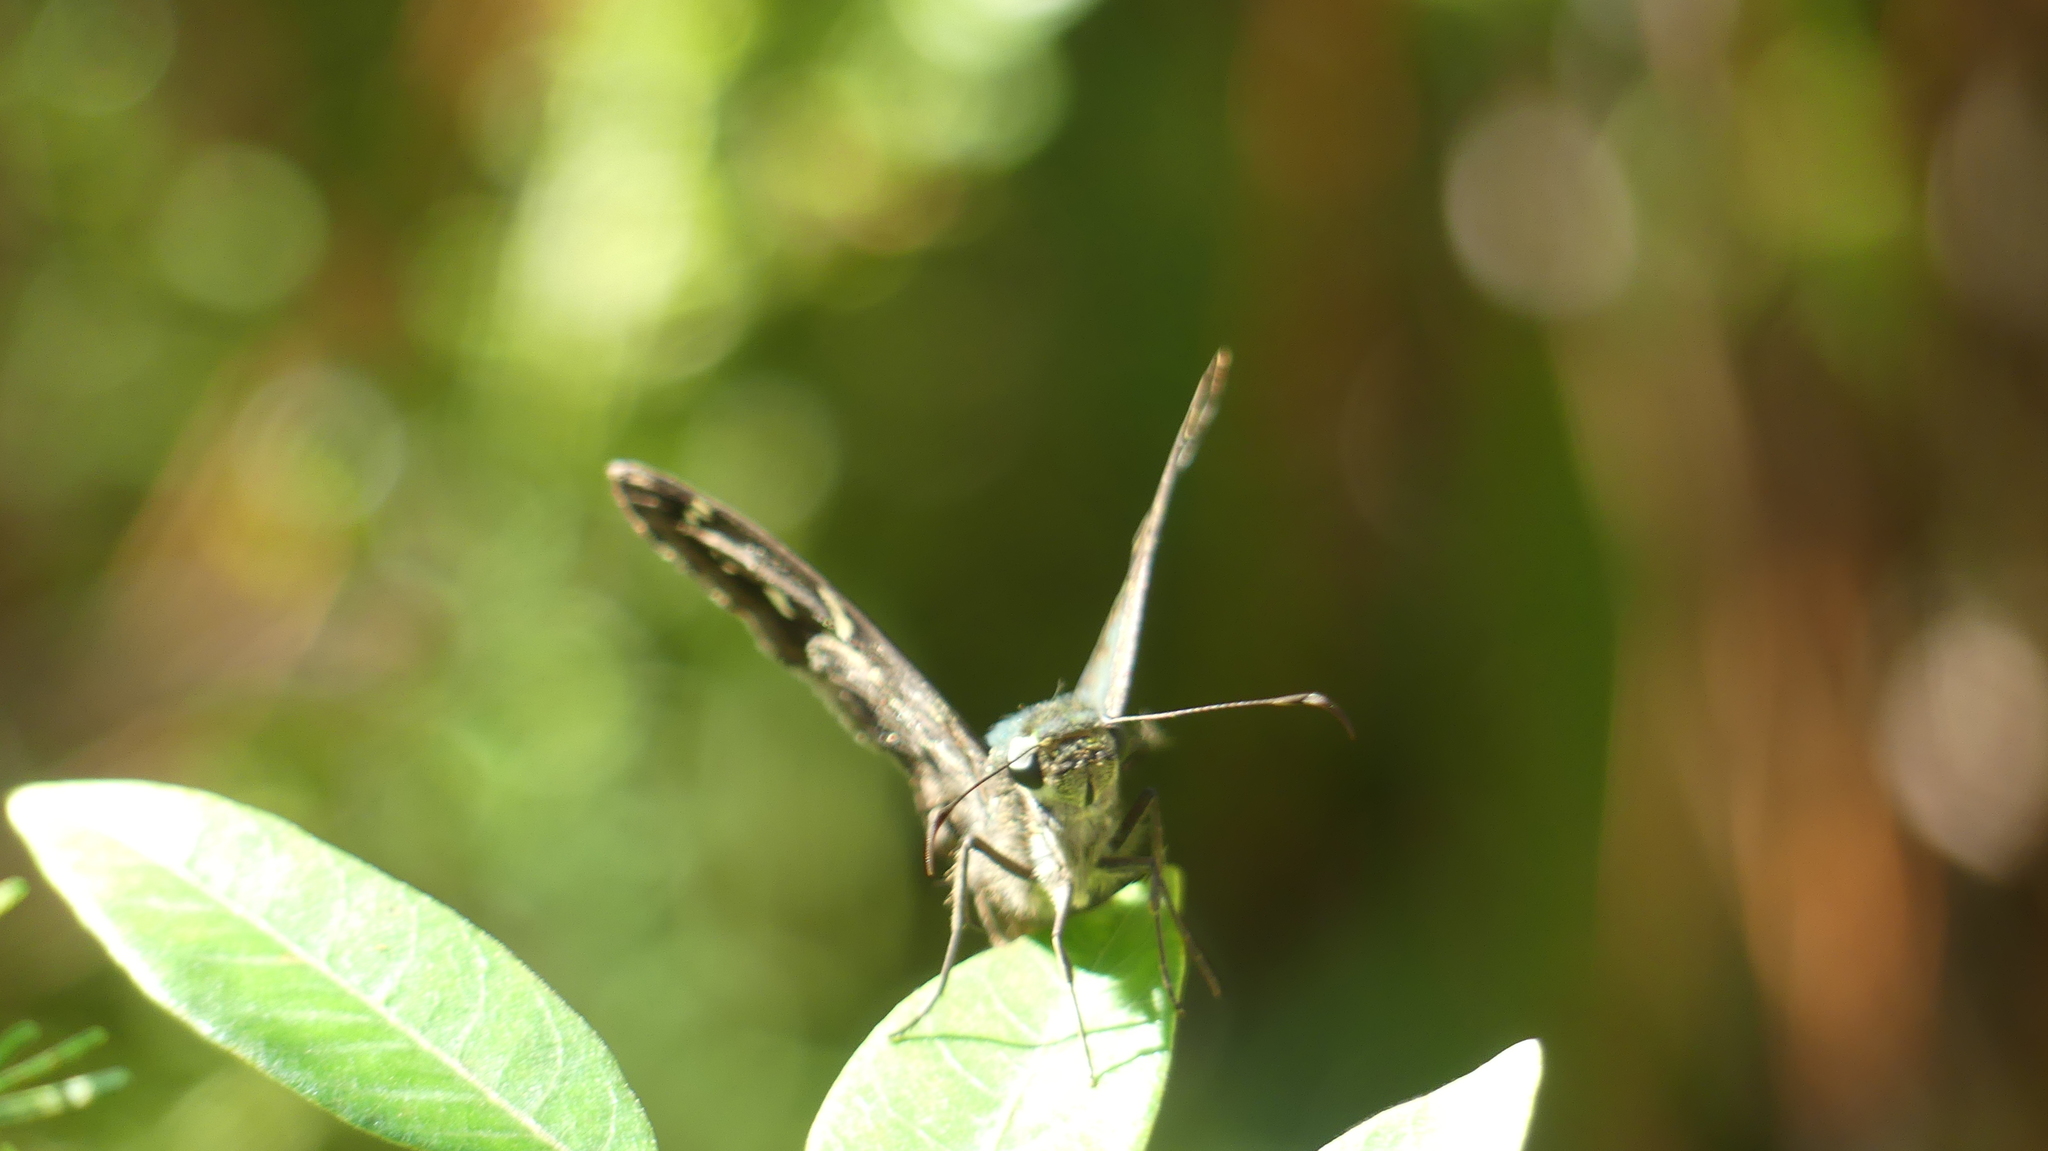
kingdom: Animalia
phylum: Arthropoda
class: Insecta
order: Lepidoptera
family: Hesperiidae
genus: Urbanus
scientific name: Urbanus proteus
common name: Long-tailed skipper
